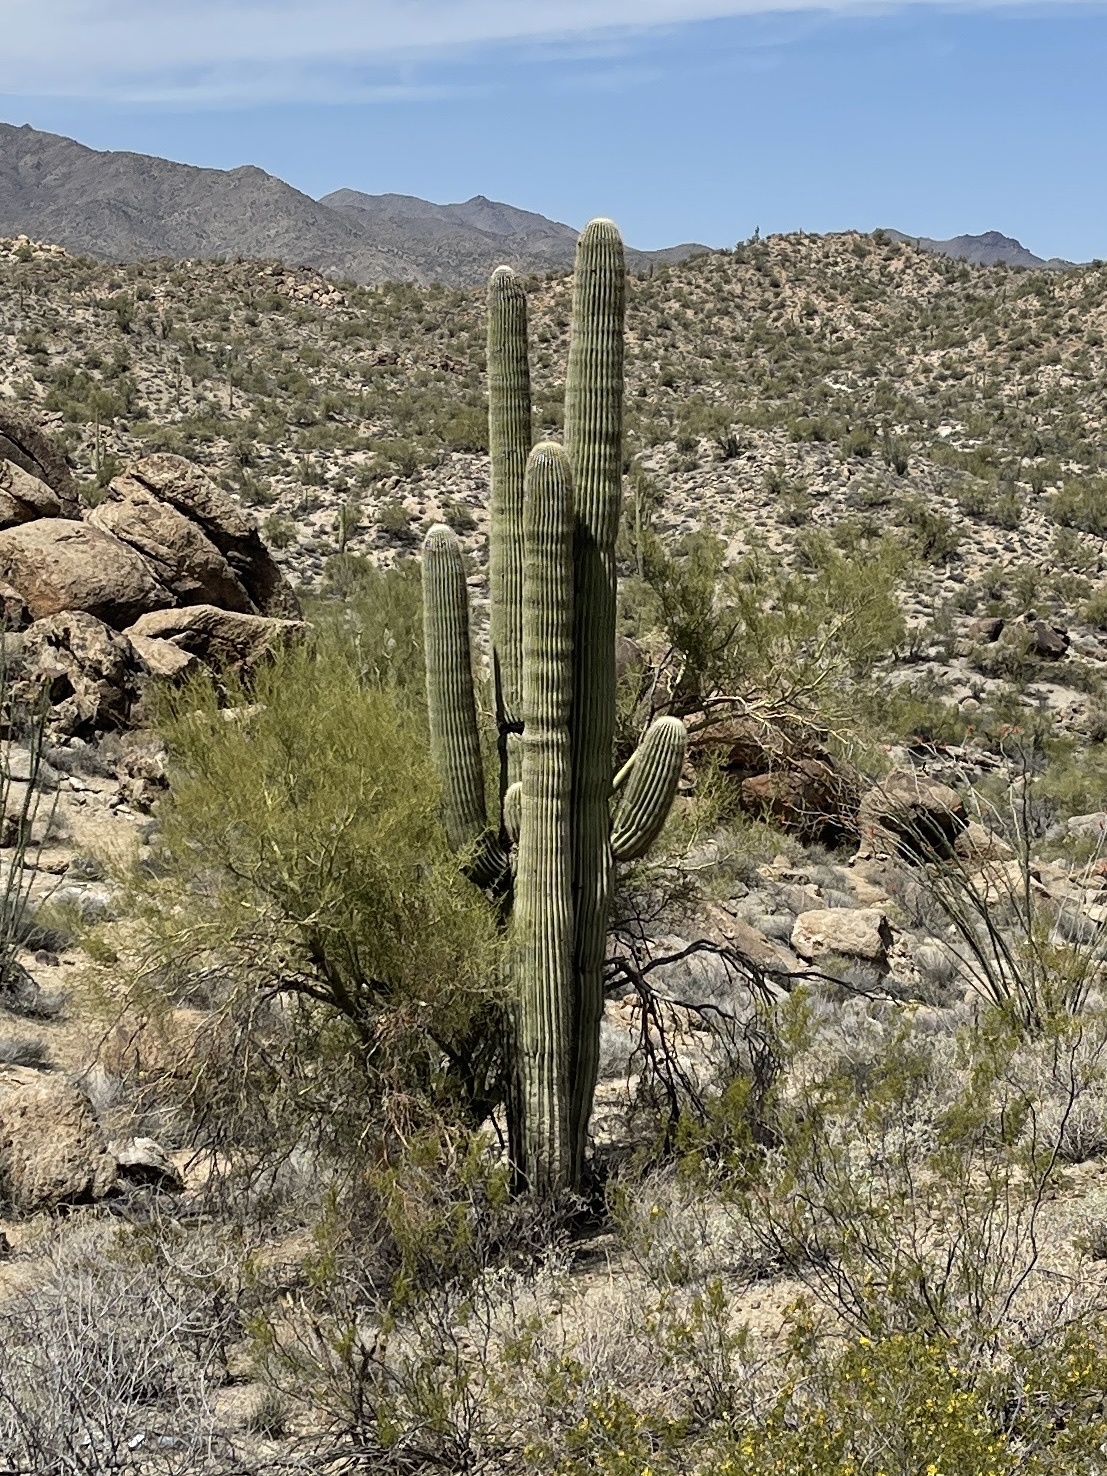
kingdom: Plantae
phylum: Tracheophyta
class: Magnoliopsida
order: Caryophyllales
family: Cactaceae
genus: Carnegiea
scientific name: Carnegiea gigantea
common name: Saguaro
